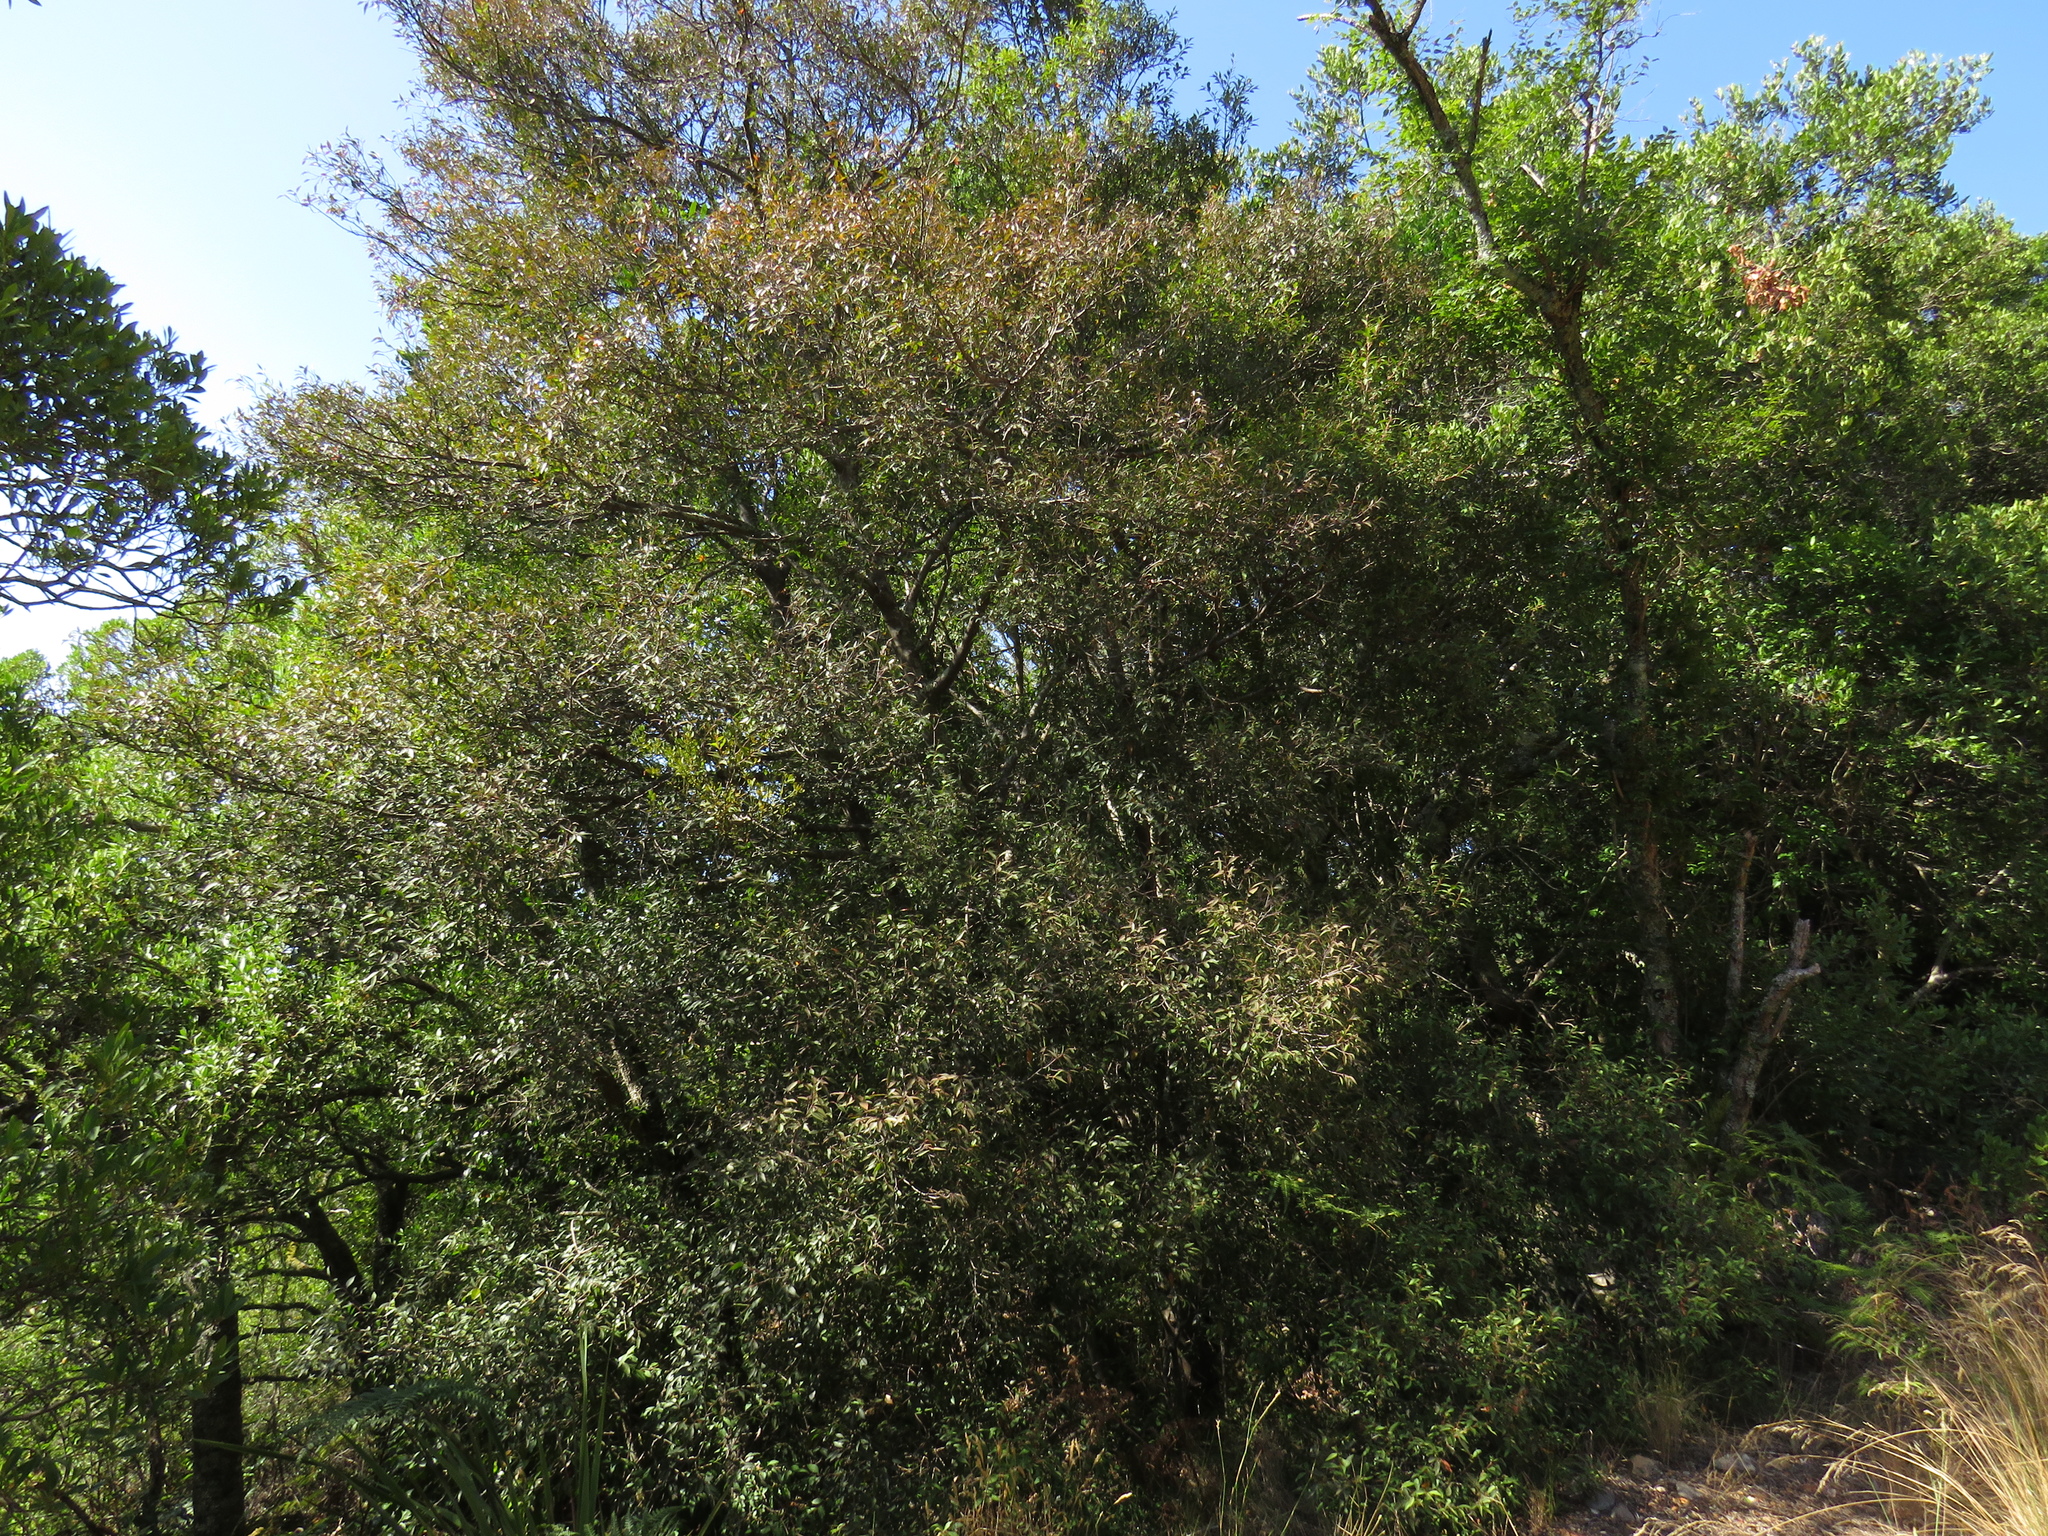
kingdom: Plantae
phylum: Tracheophyta
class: Magnoliopsida
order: Celastrales
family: Celastraceae
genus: Gymnosporia
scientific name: Gymnosporia acuminata
